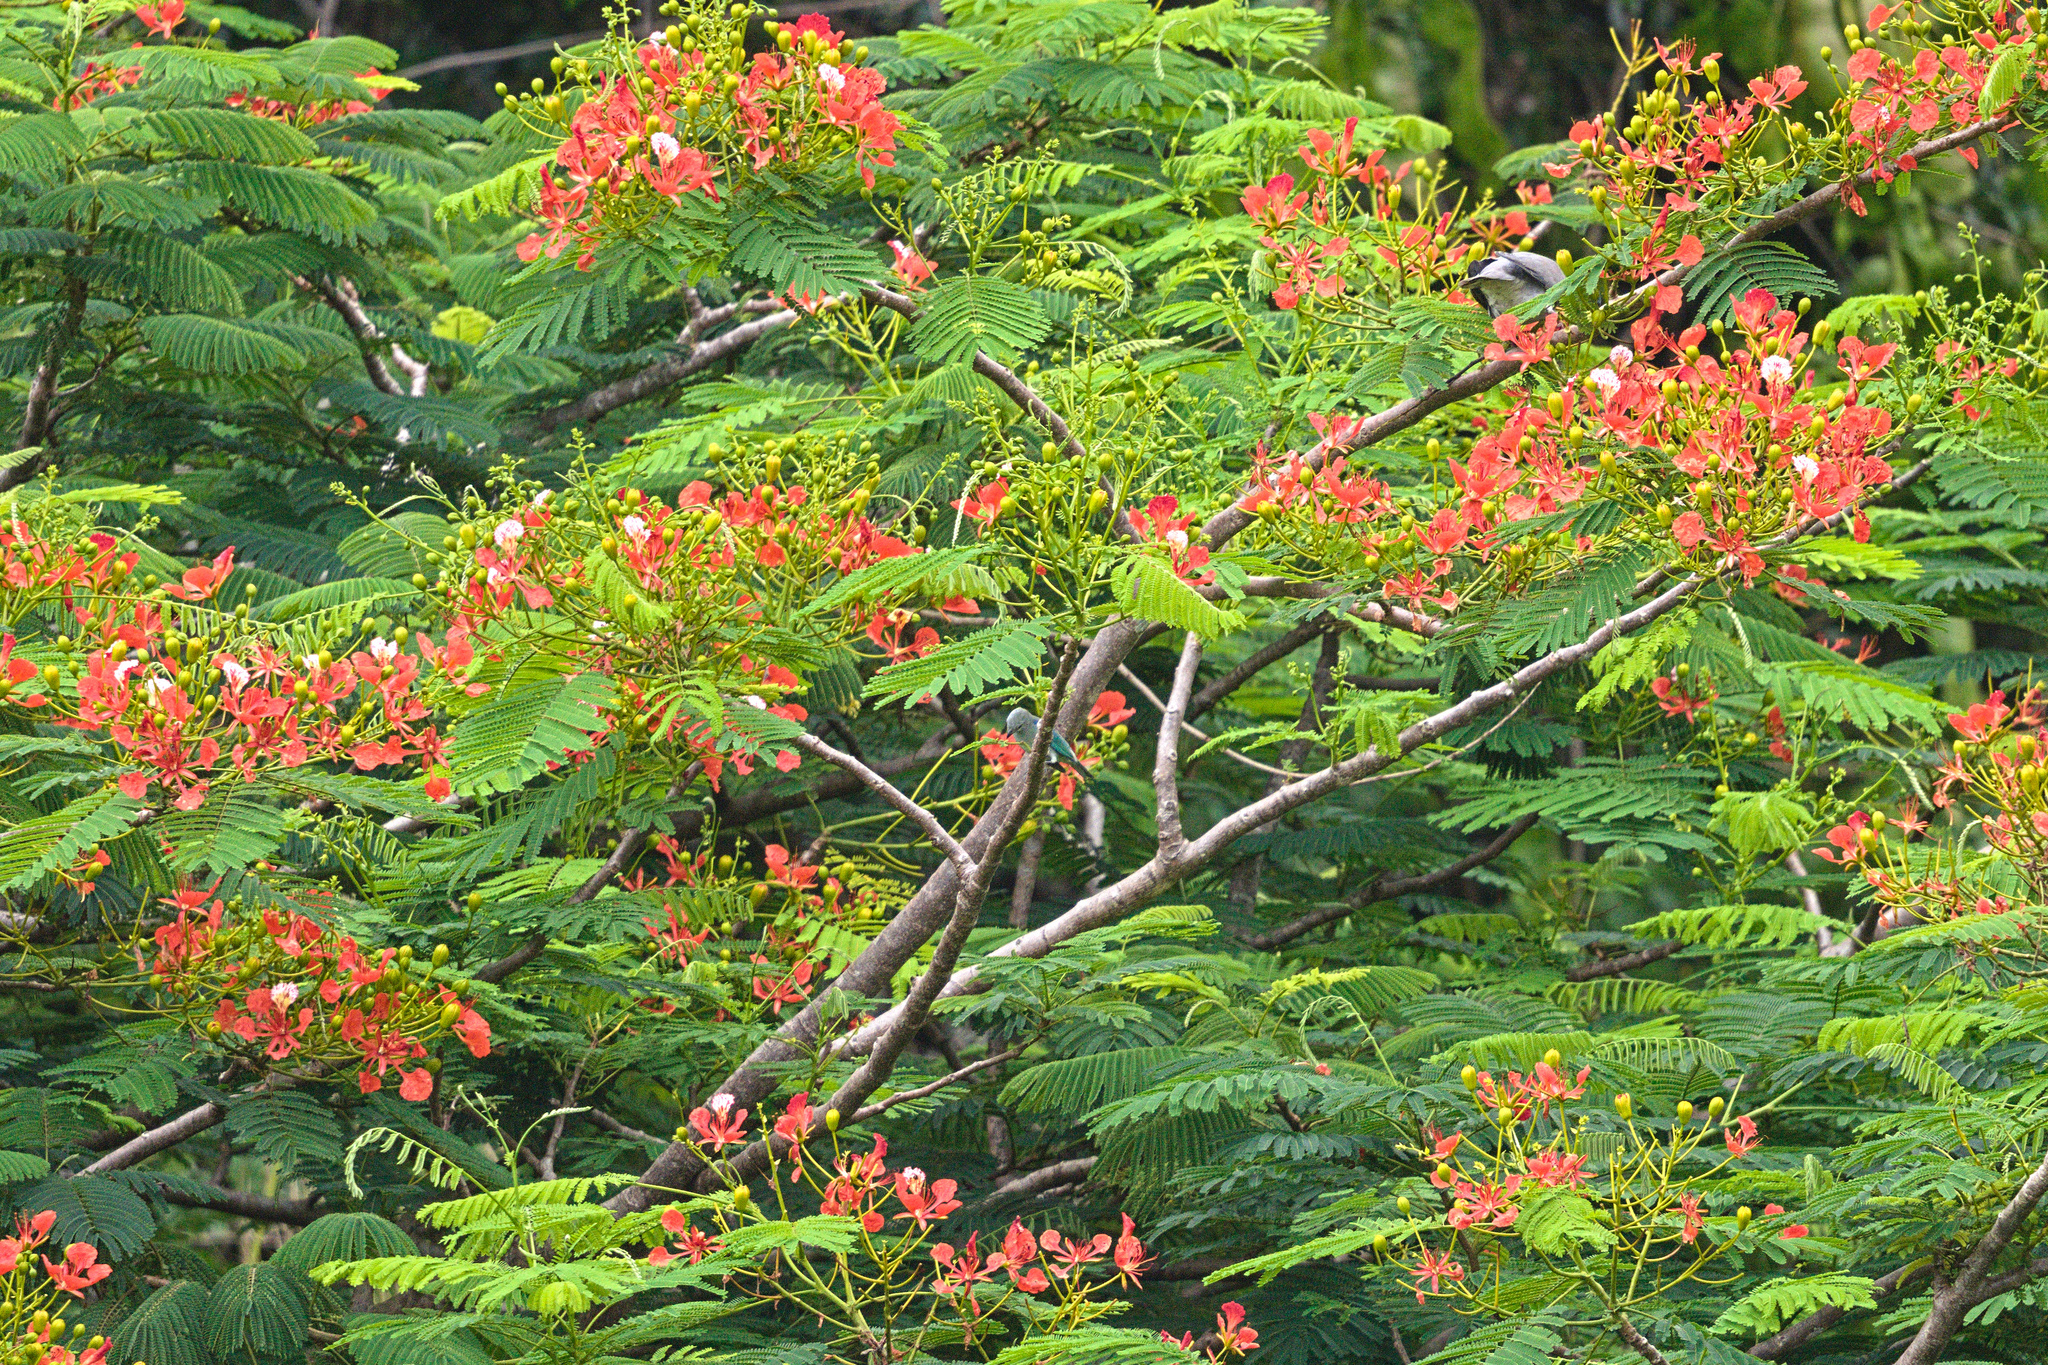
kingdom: Animalia
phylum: Chordata
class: Aves
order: Passeriformes
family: Thraupidae
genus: Thraupis
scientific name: Thraupis episcopus
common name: Blue-grey tanager
